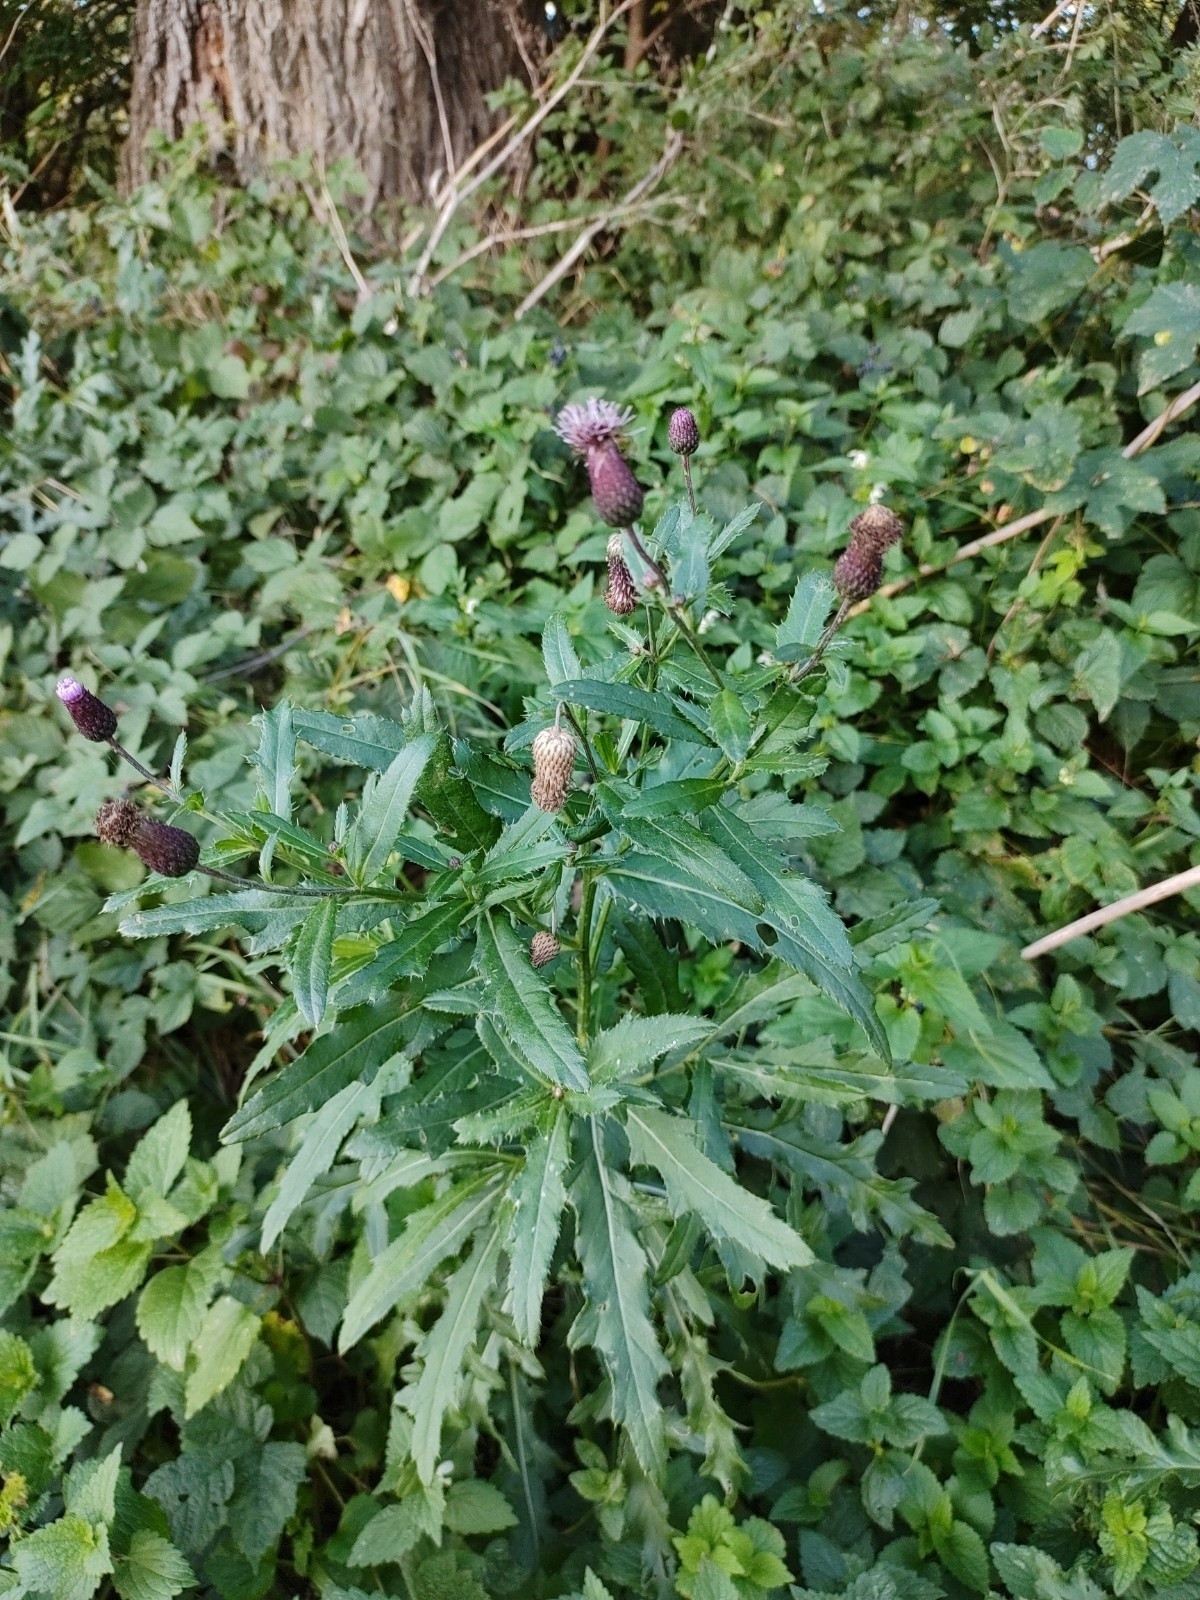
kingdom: Plantae
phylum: Tracheophyta
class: Magnoliopsida
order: Asterales
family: Asteraceae
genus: Cirsium
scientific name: Cirsium arvense
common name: Creeping thistle
